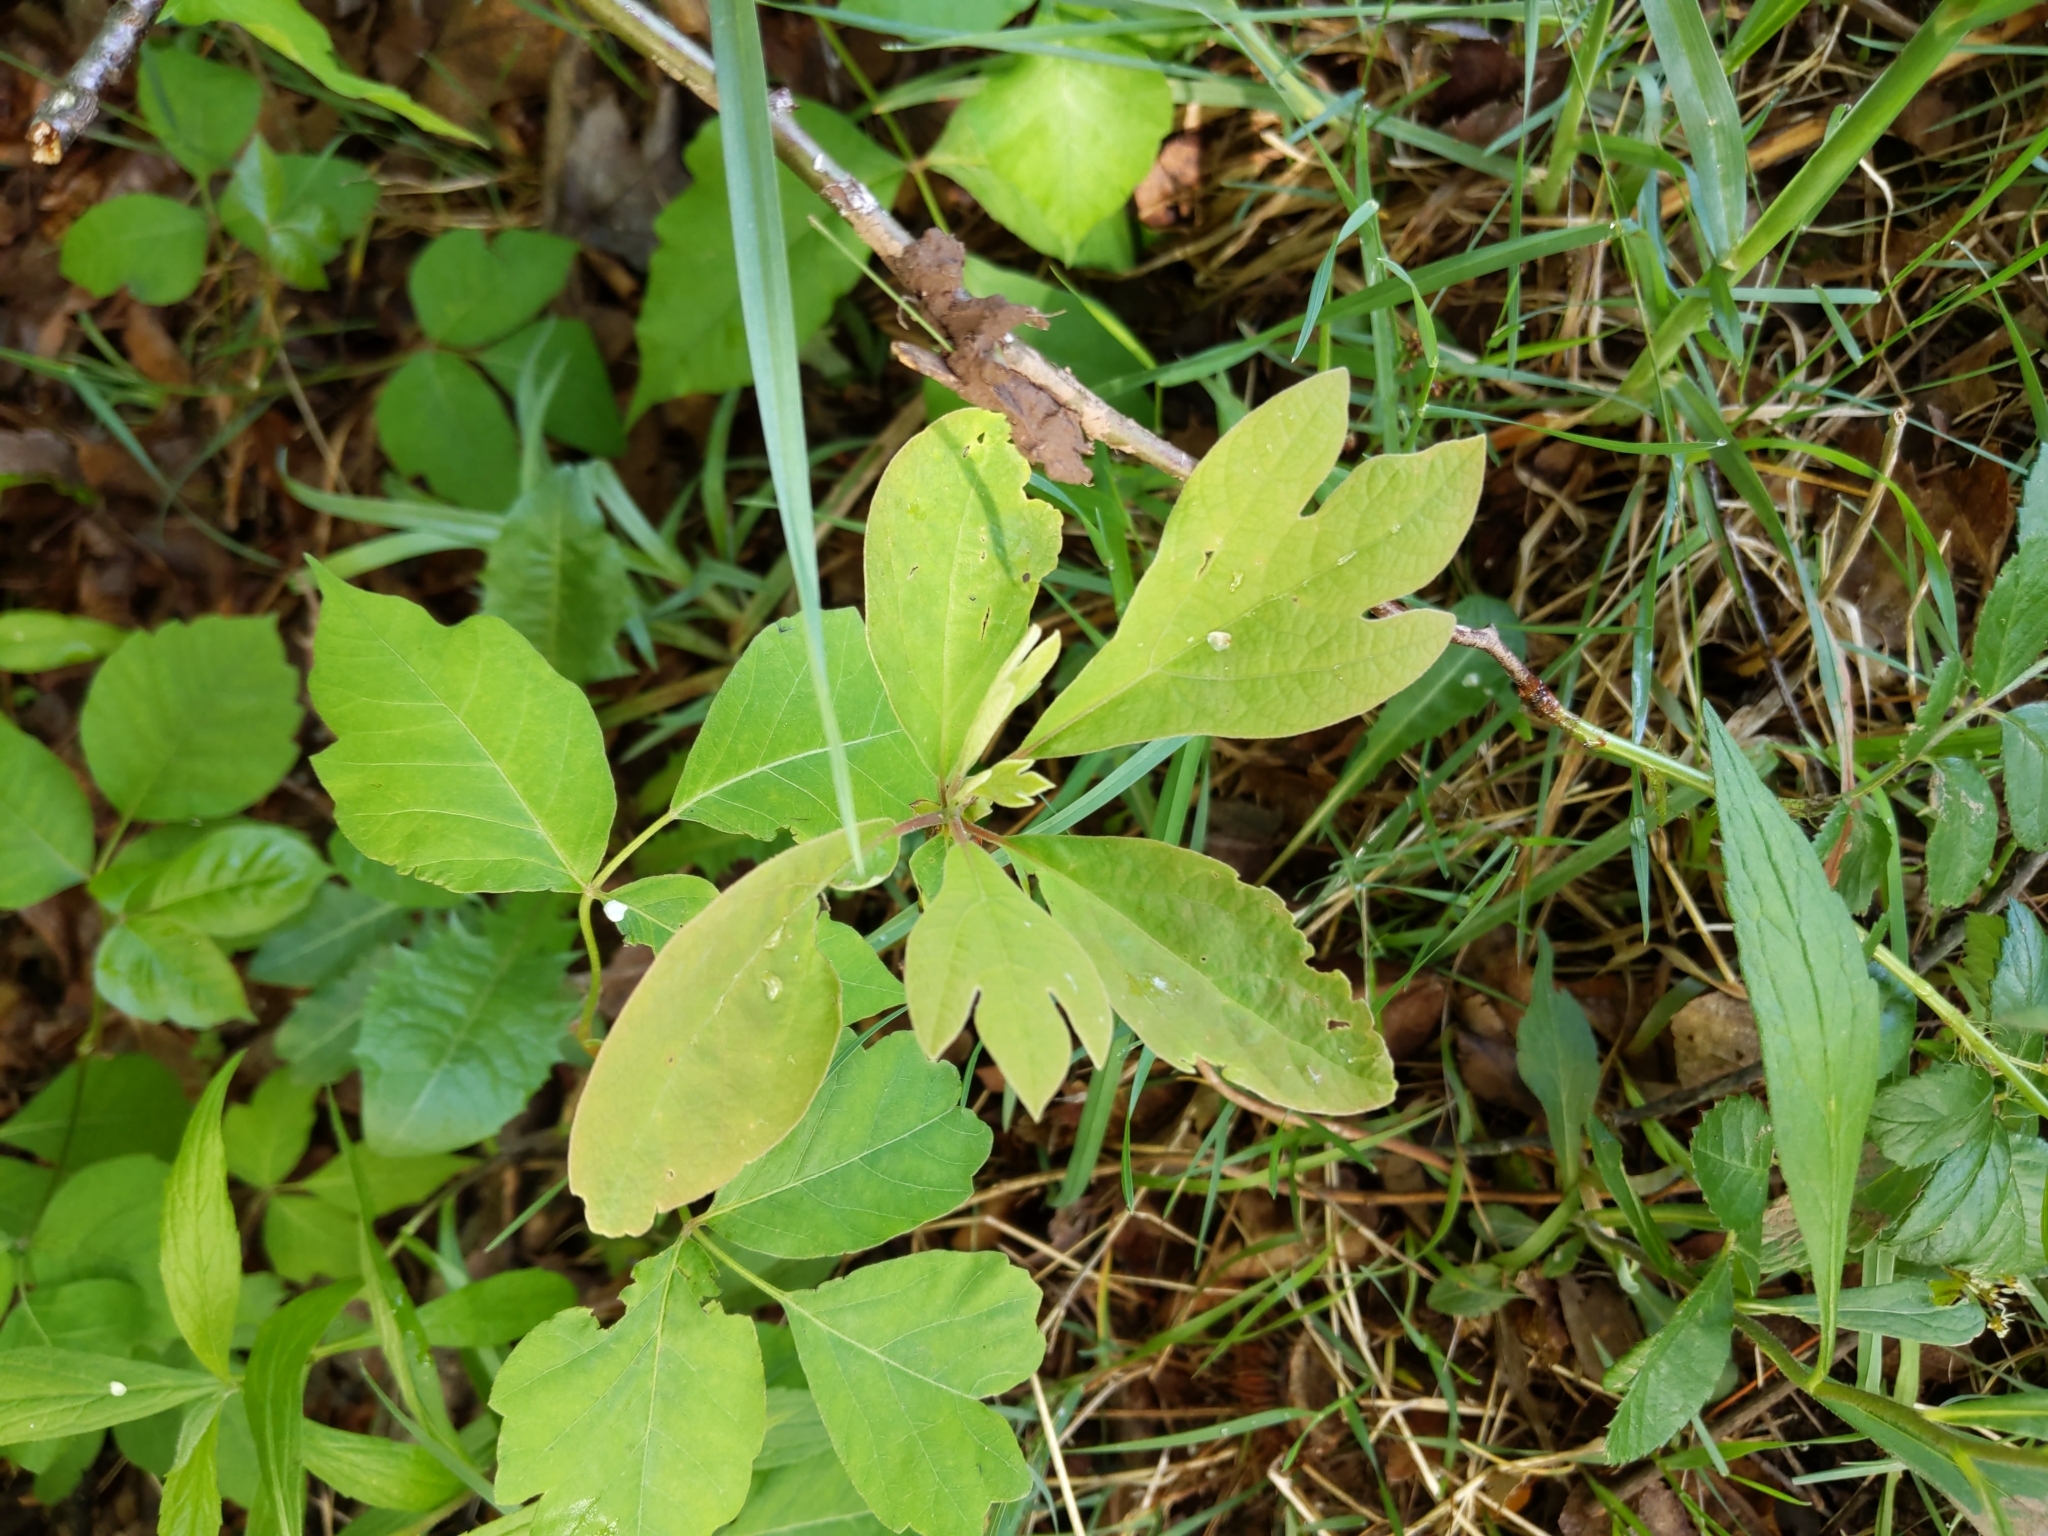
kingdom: Plantae
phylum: Tracheophyta
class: Magnoliopsida
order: Laurales
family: Lauraceae
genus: Sassafras
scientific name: Sassafras albidum
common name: Sassafras
